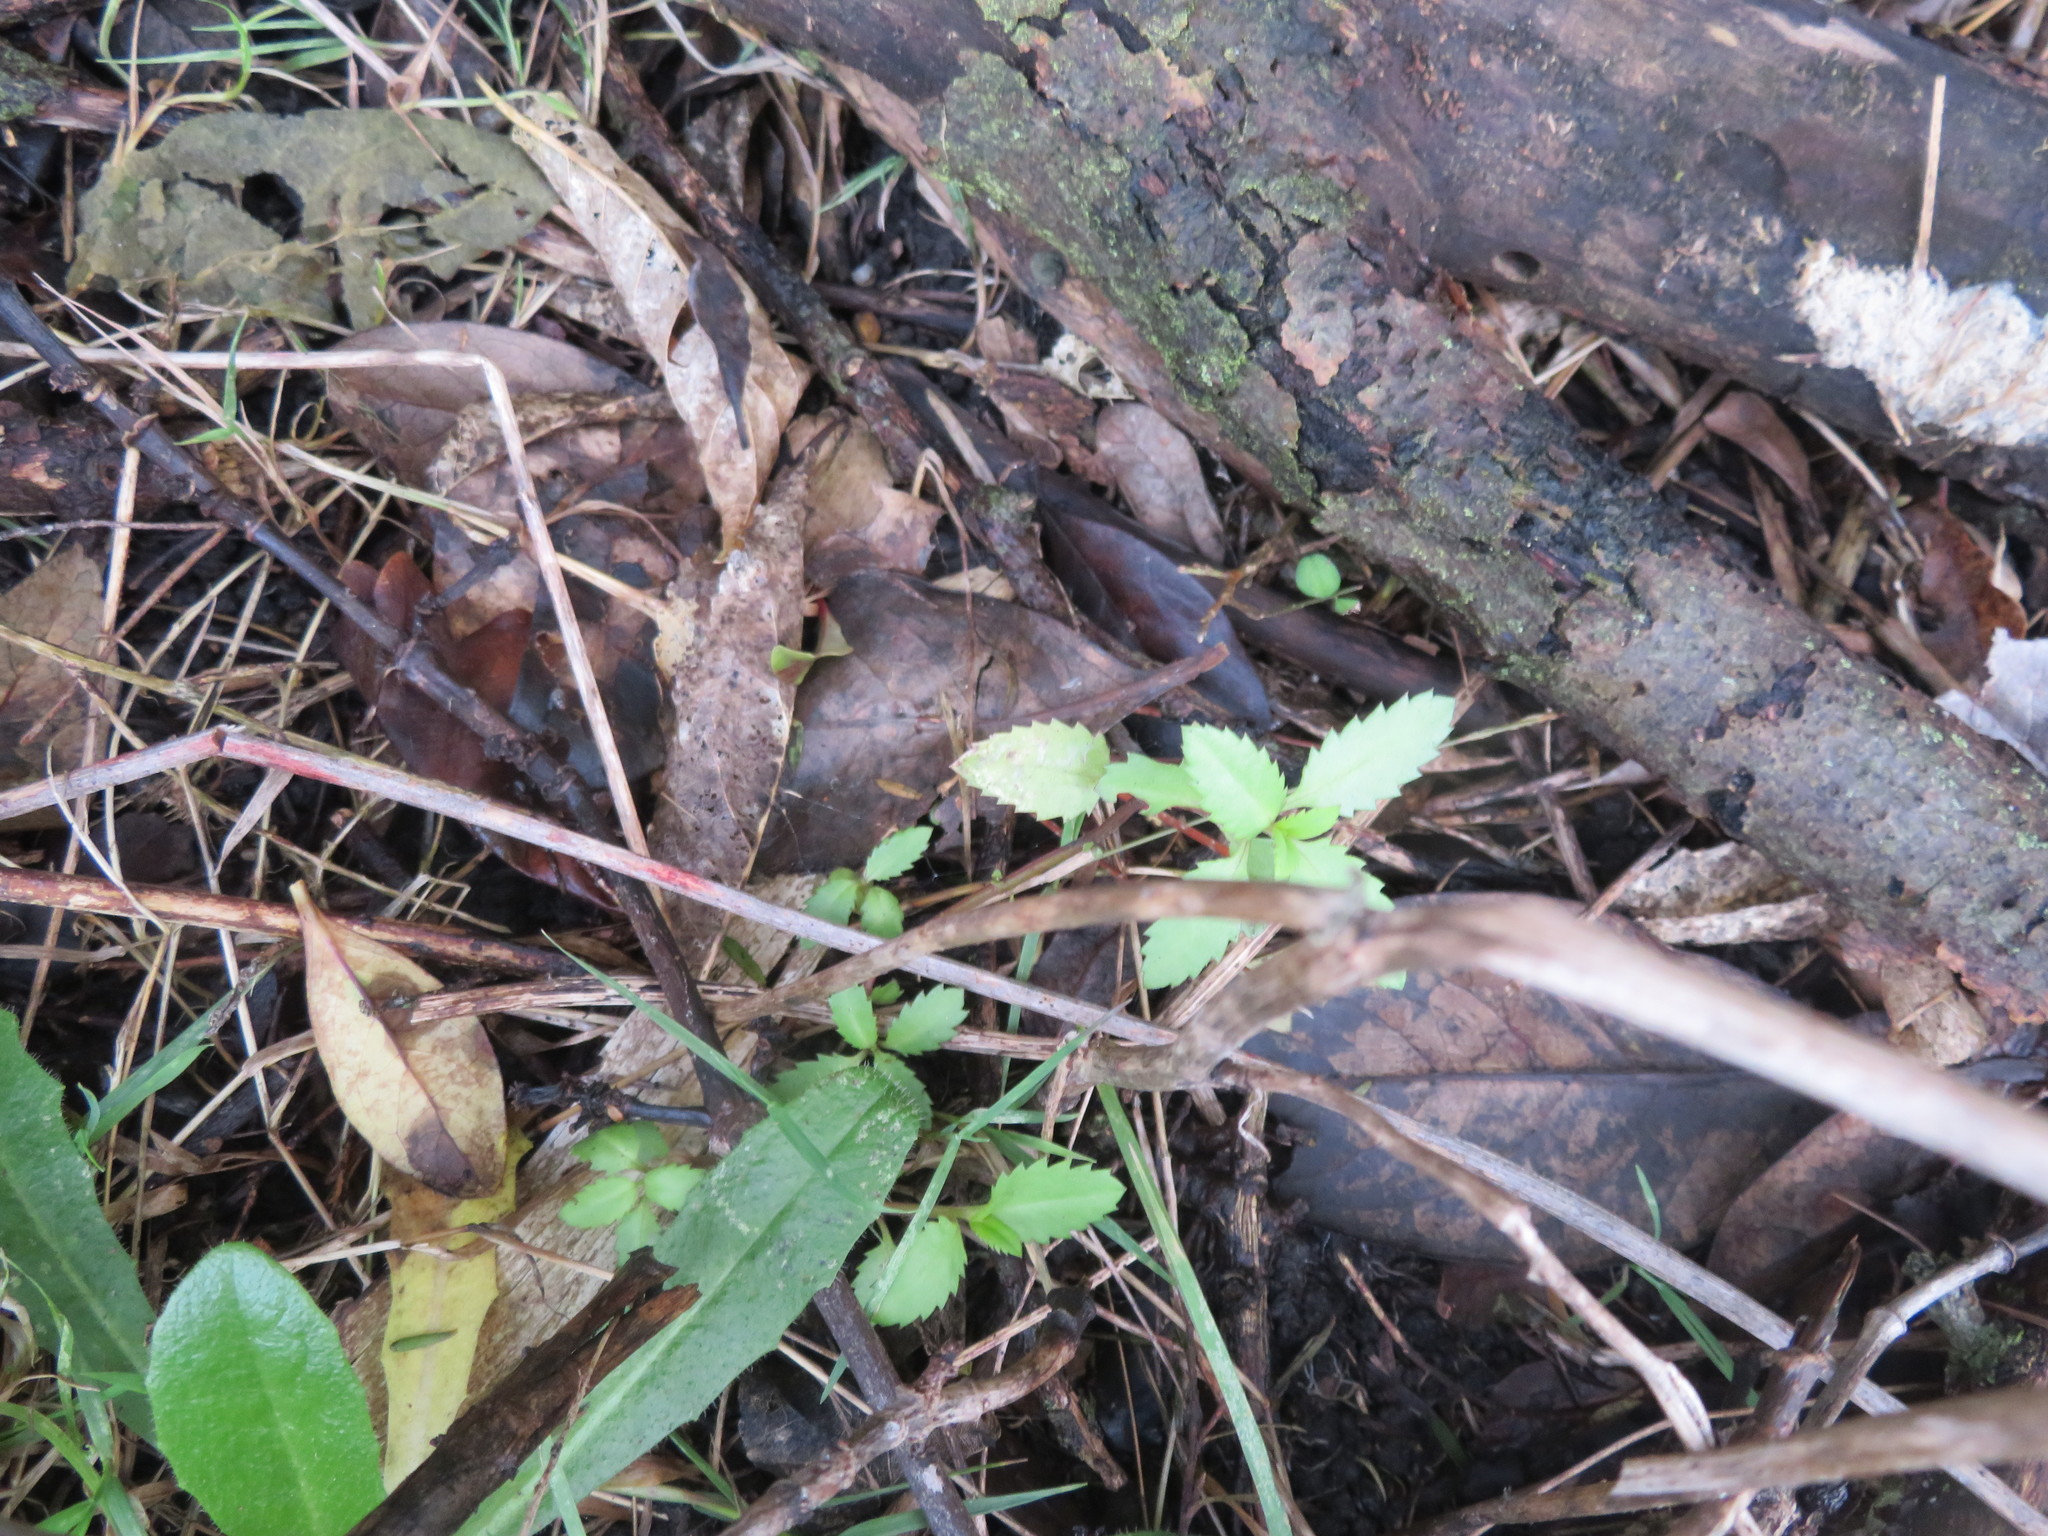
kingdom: Plantae
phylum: Tracheophyta
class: Magnoliopsida
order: Saxifragales
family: Haloragaceae
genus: Haloragis
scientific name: Haloragis erecta
